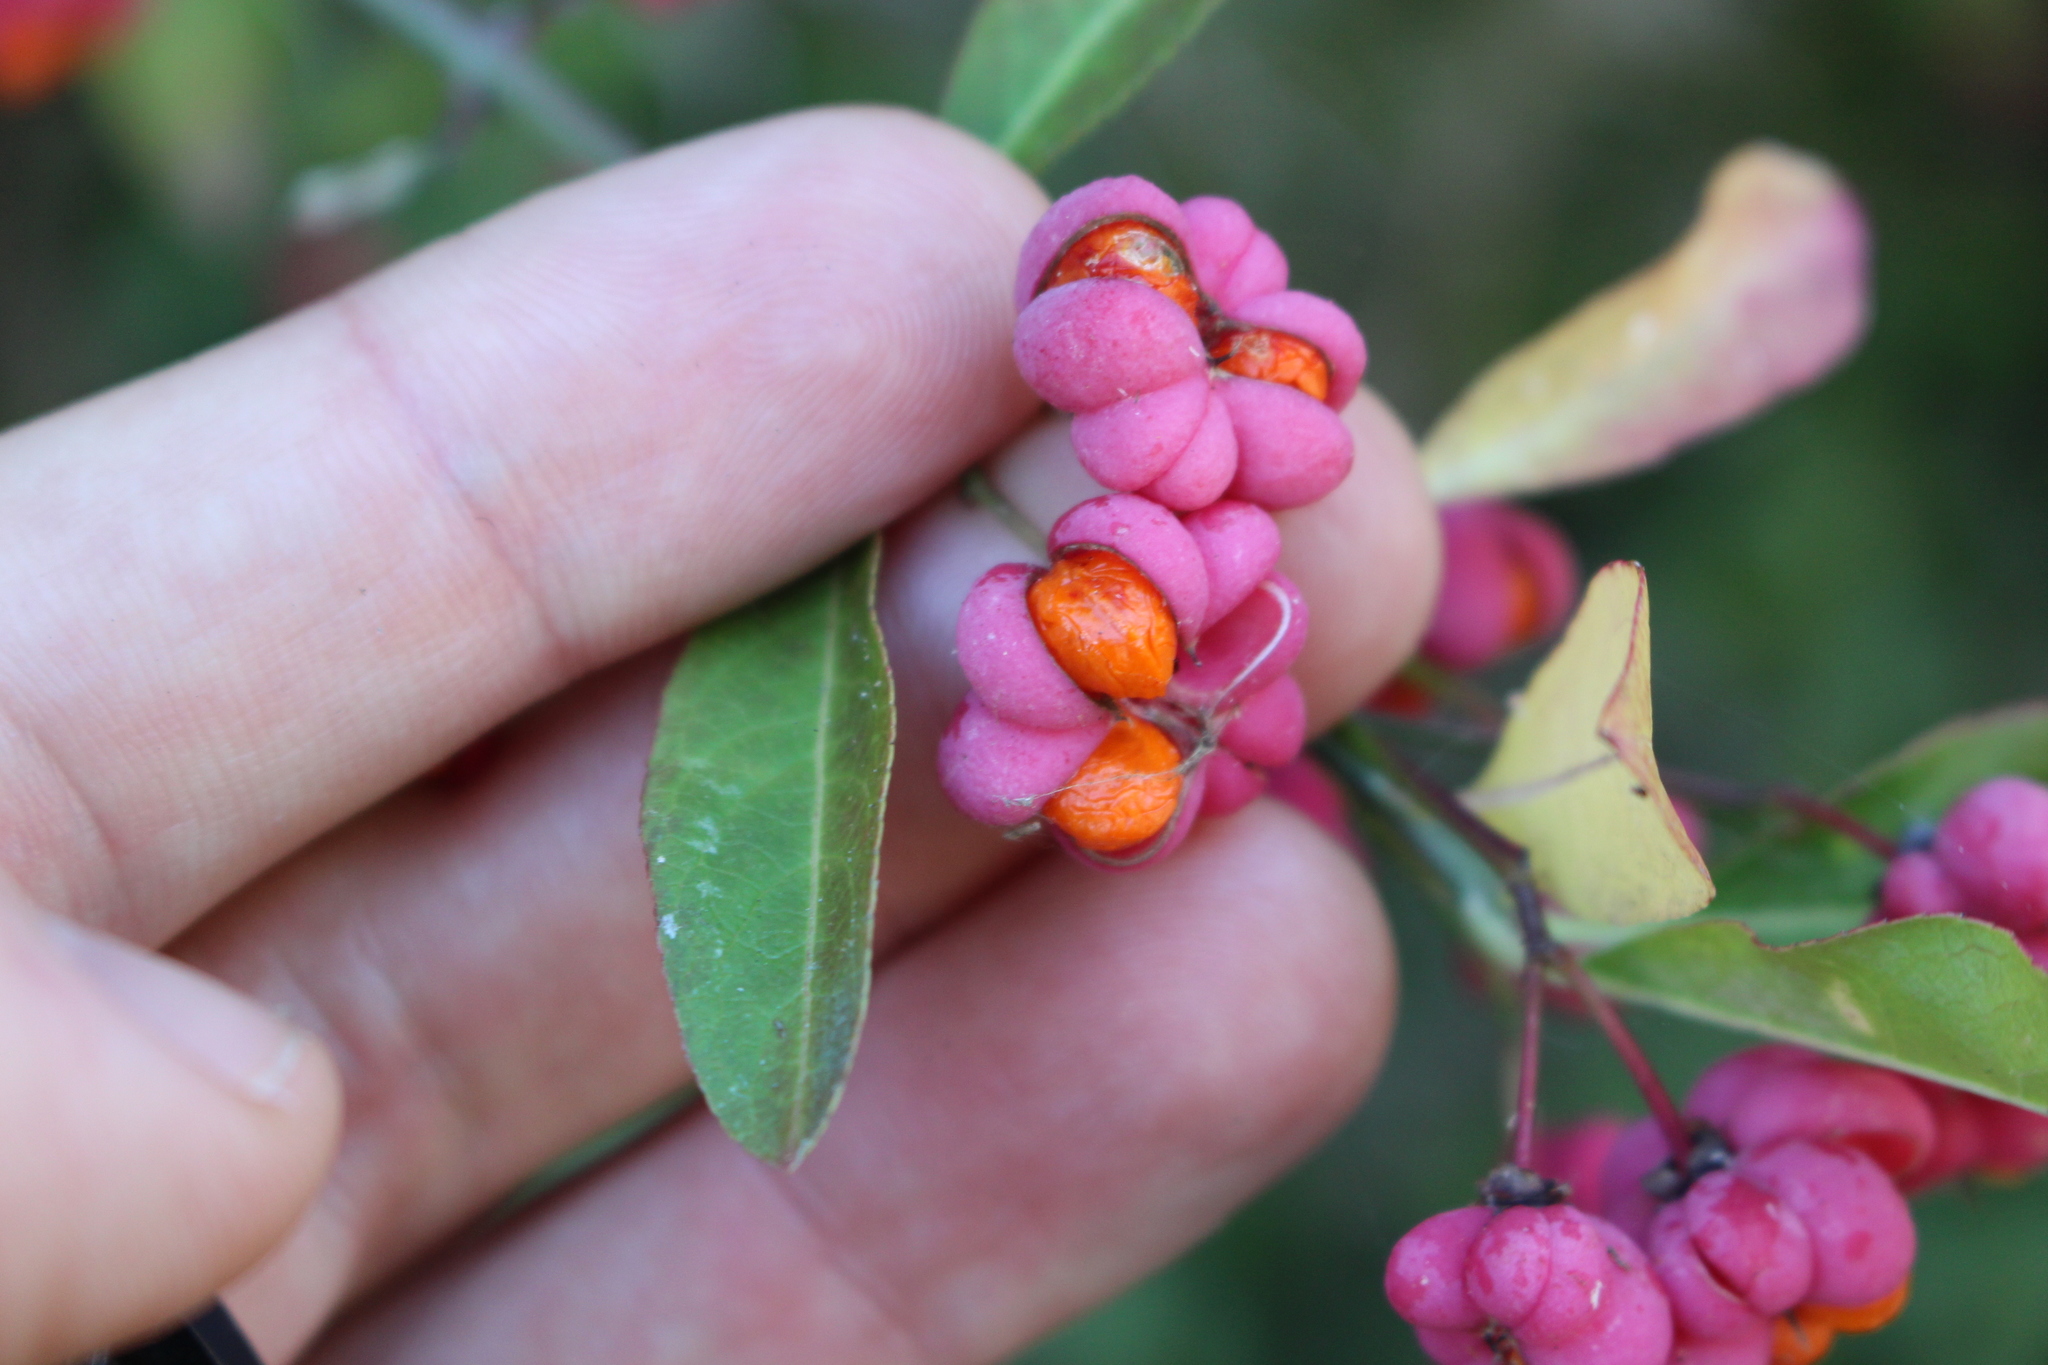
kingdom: Plantae
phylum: Tracheophyta
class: Magnoliopsida
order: Celastrales
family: Celastraceae
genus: Euonymus
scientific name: Euonymus europaeus
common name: Spindle
